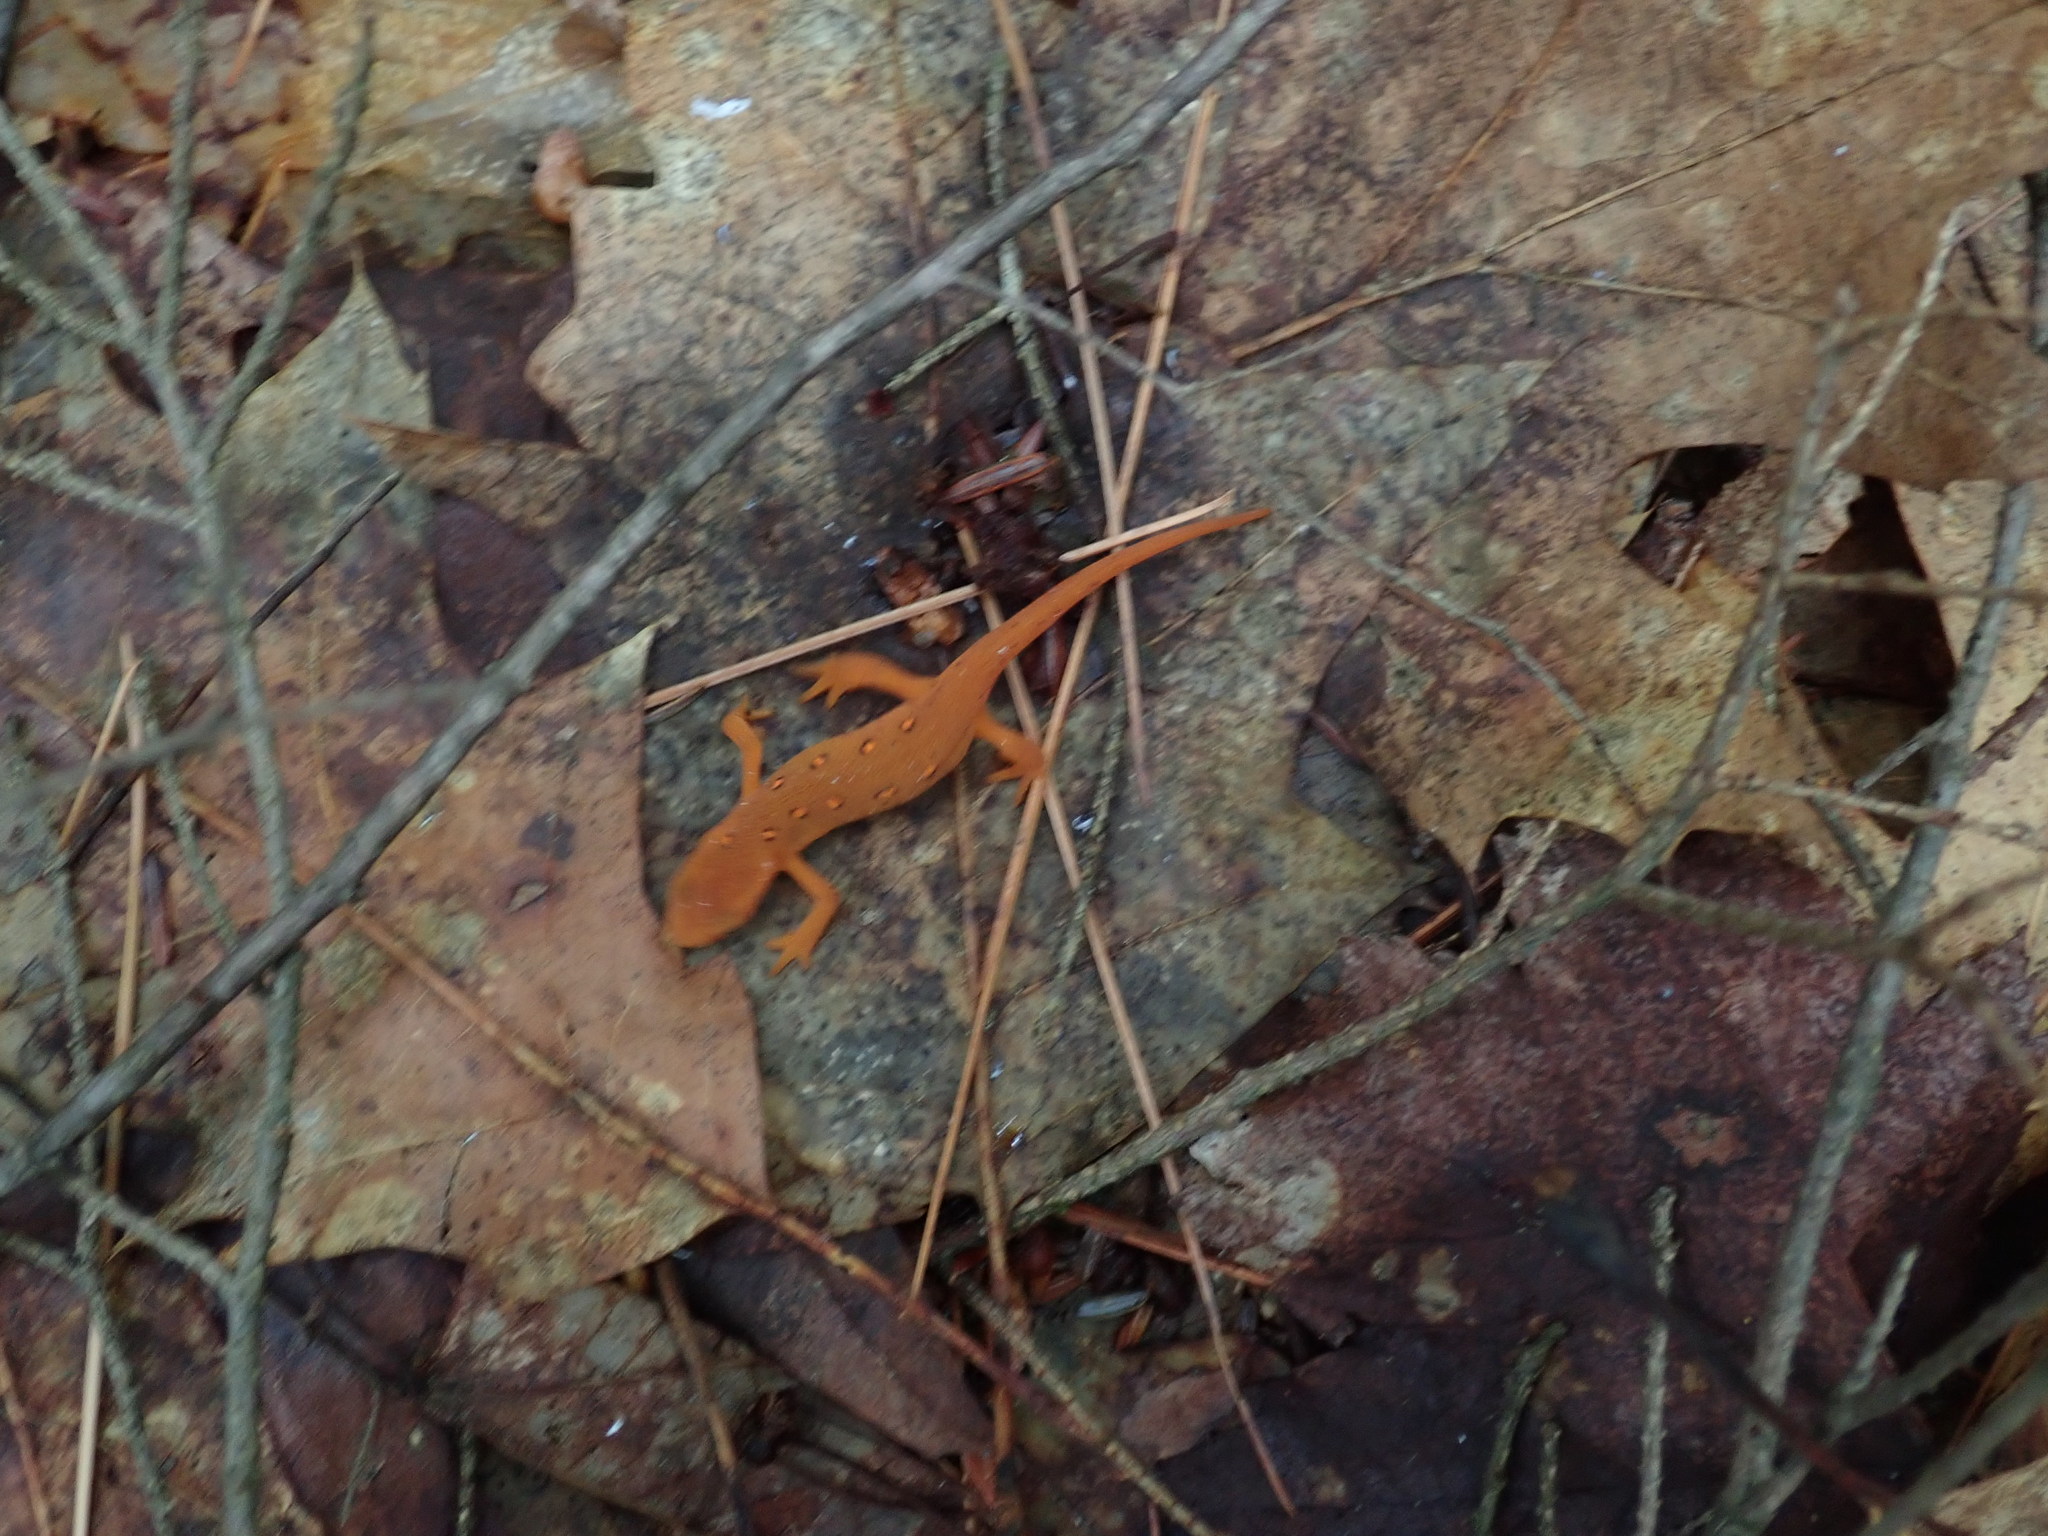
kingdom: Animalia
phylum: Chordata
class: Amphibia
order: Caudata
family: Salamandridae
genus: Notophthalmus
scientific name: Notophthalmus viridescens
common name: Eastern newt
